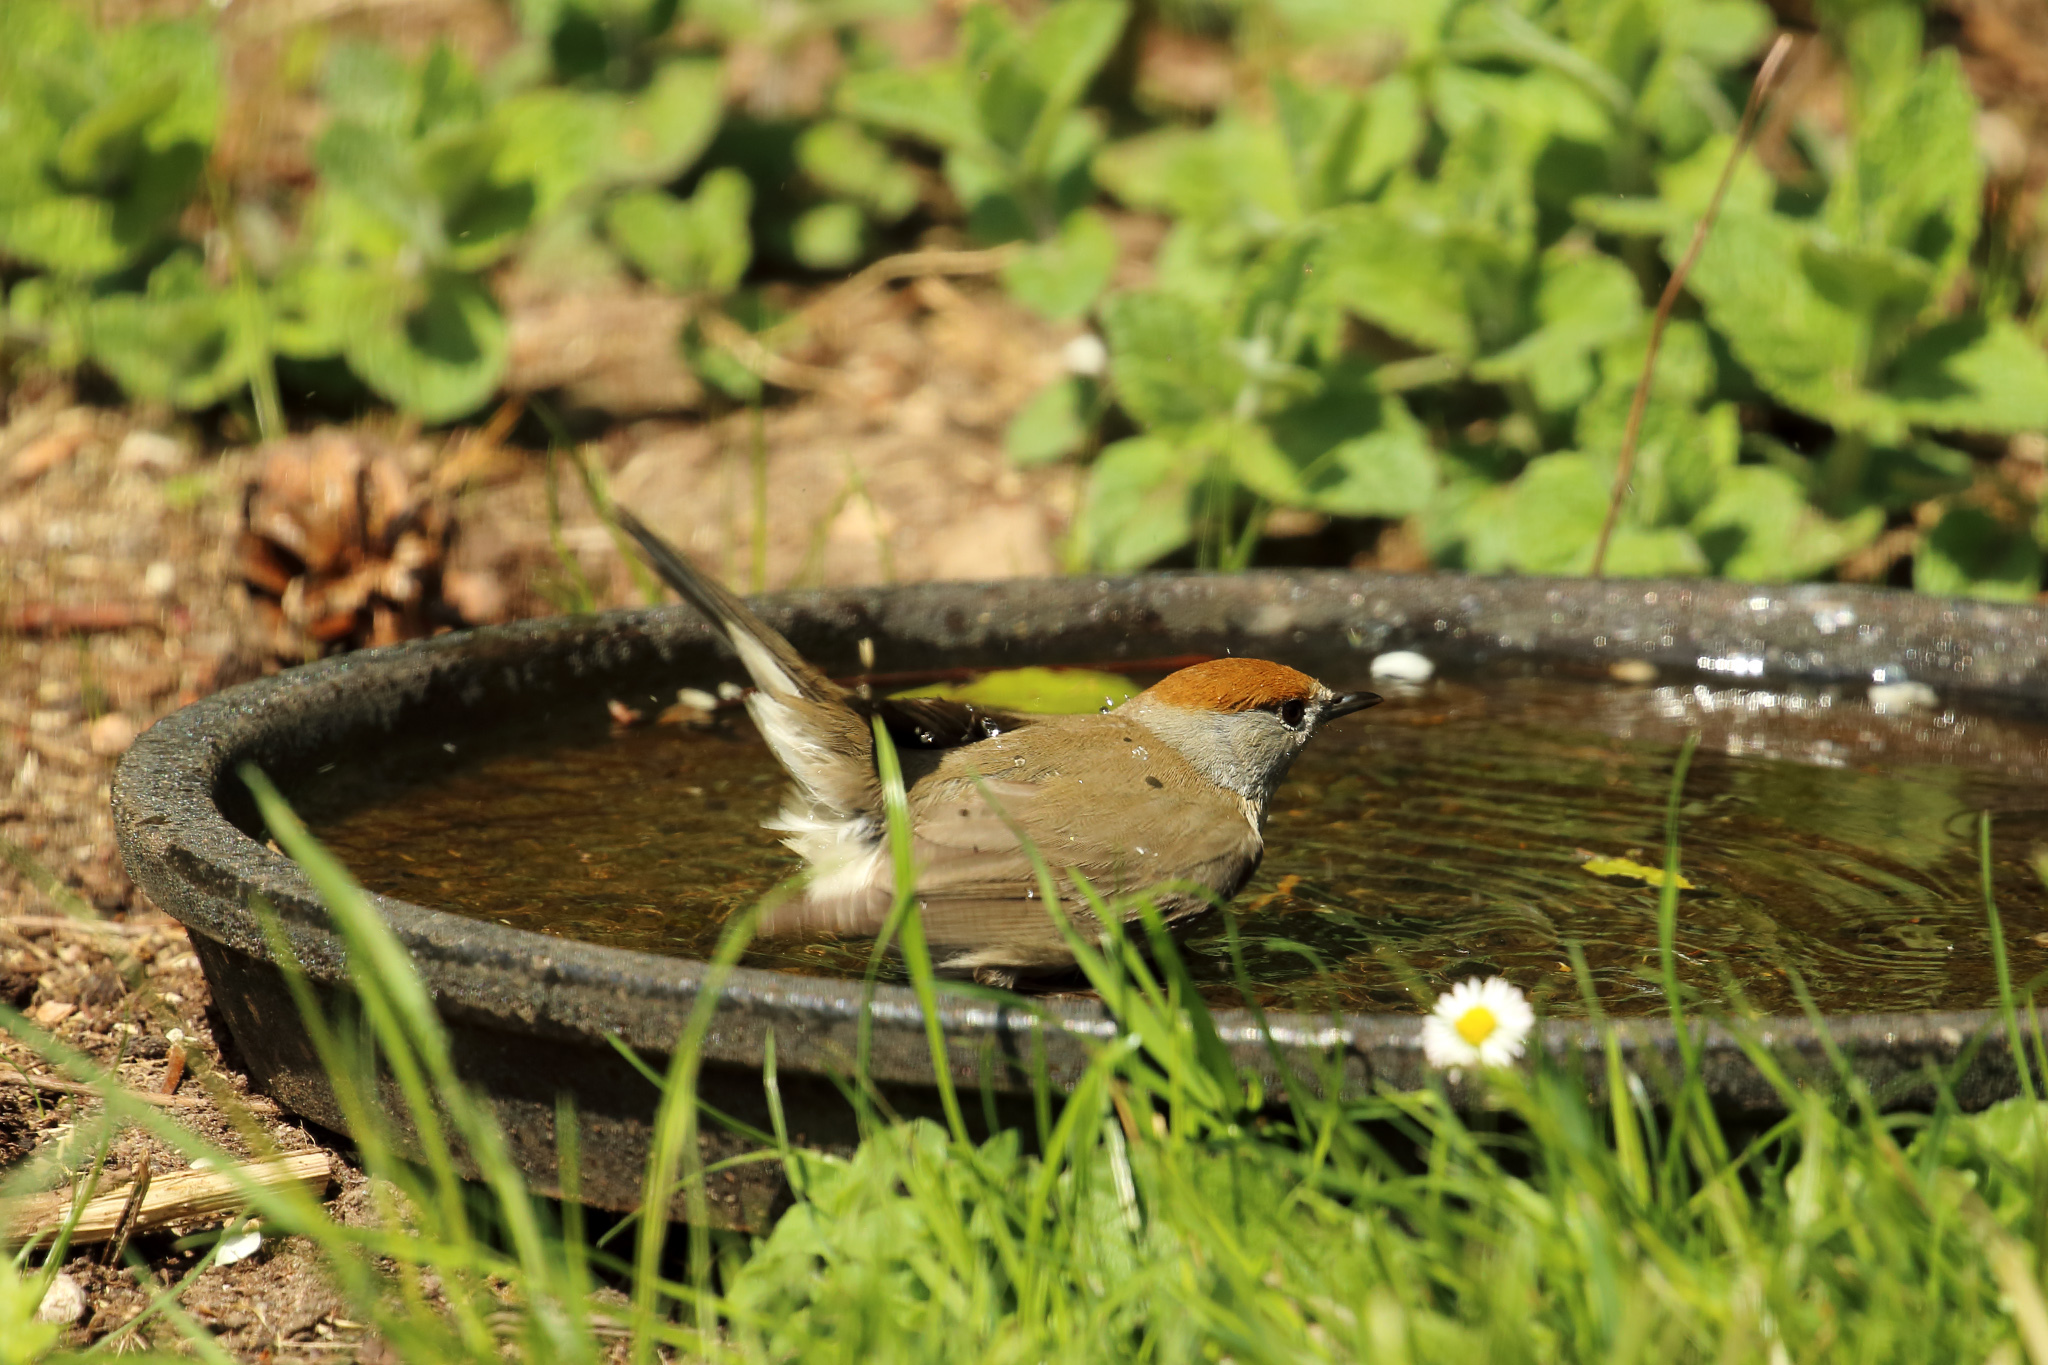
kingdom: Animalia
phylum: Chordata
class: Aves
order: Passeriformes
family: Sylviidae
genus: Sylvia
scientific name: Sylvia atricapilla
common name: Eurasian blackcap
